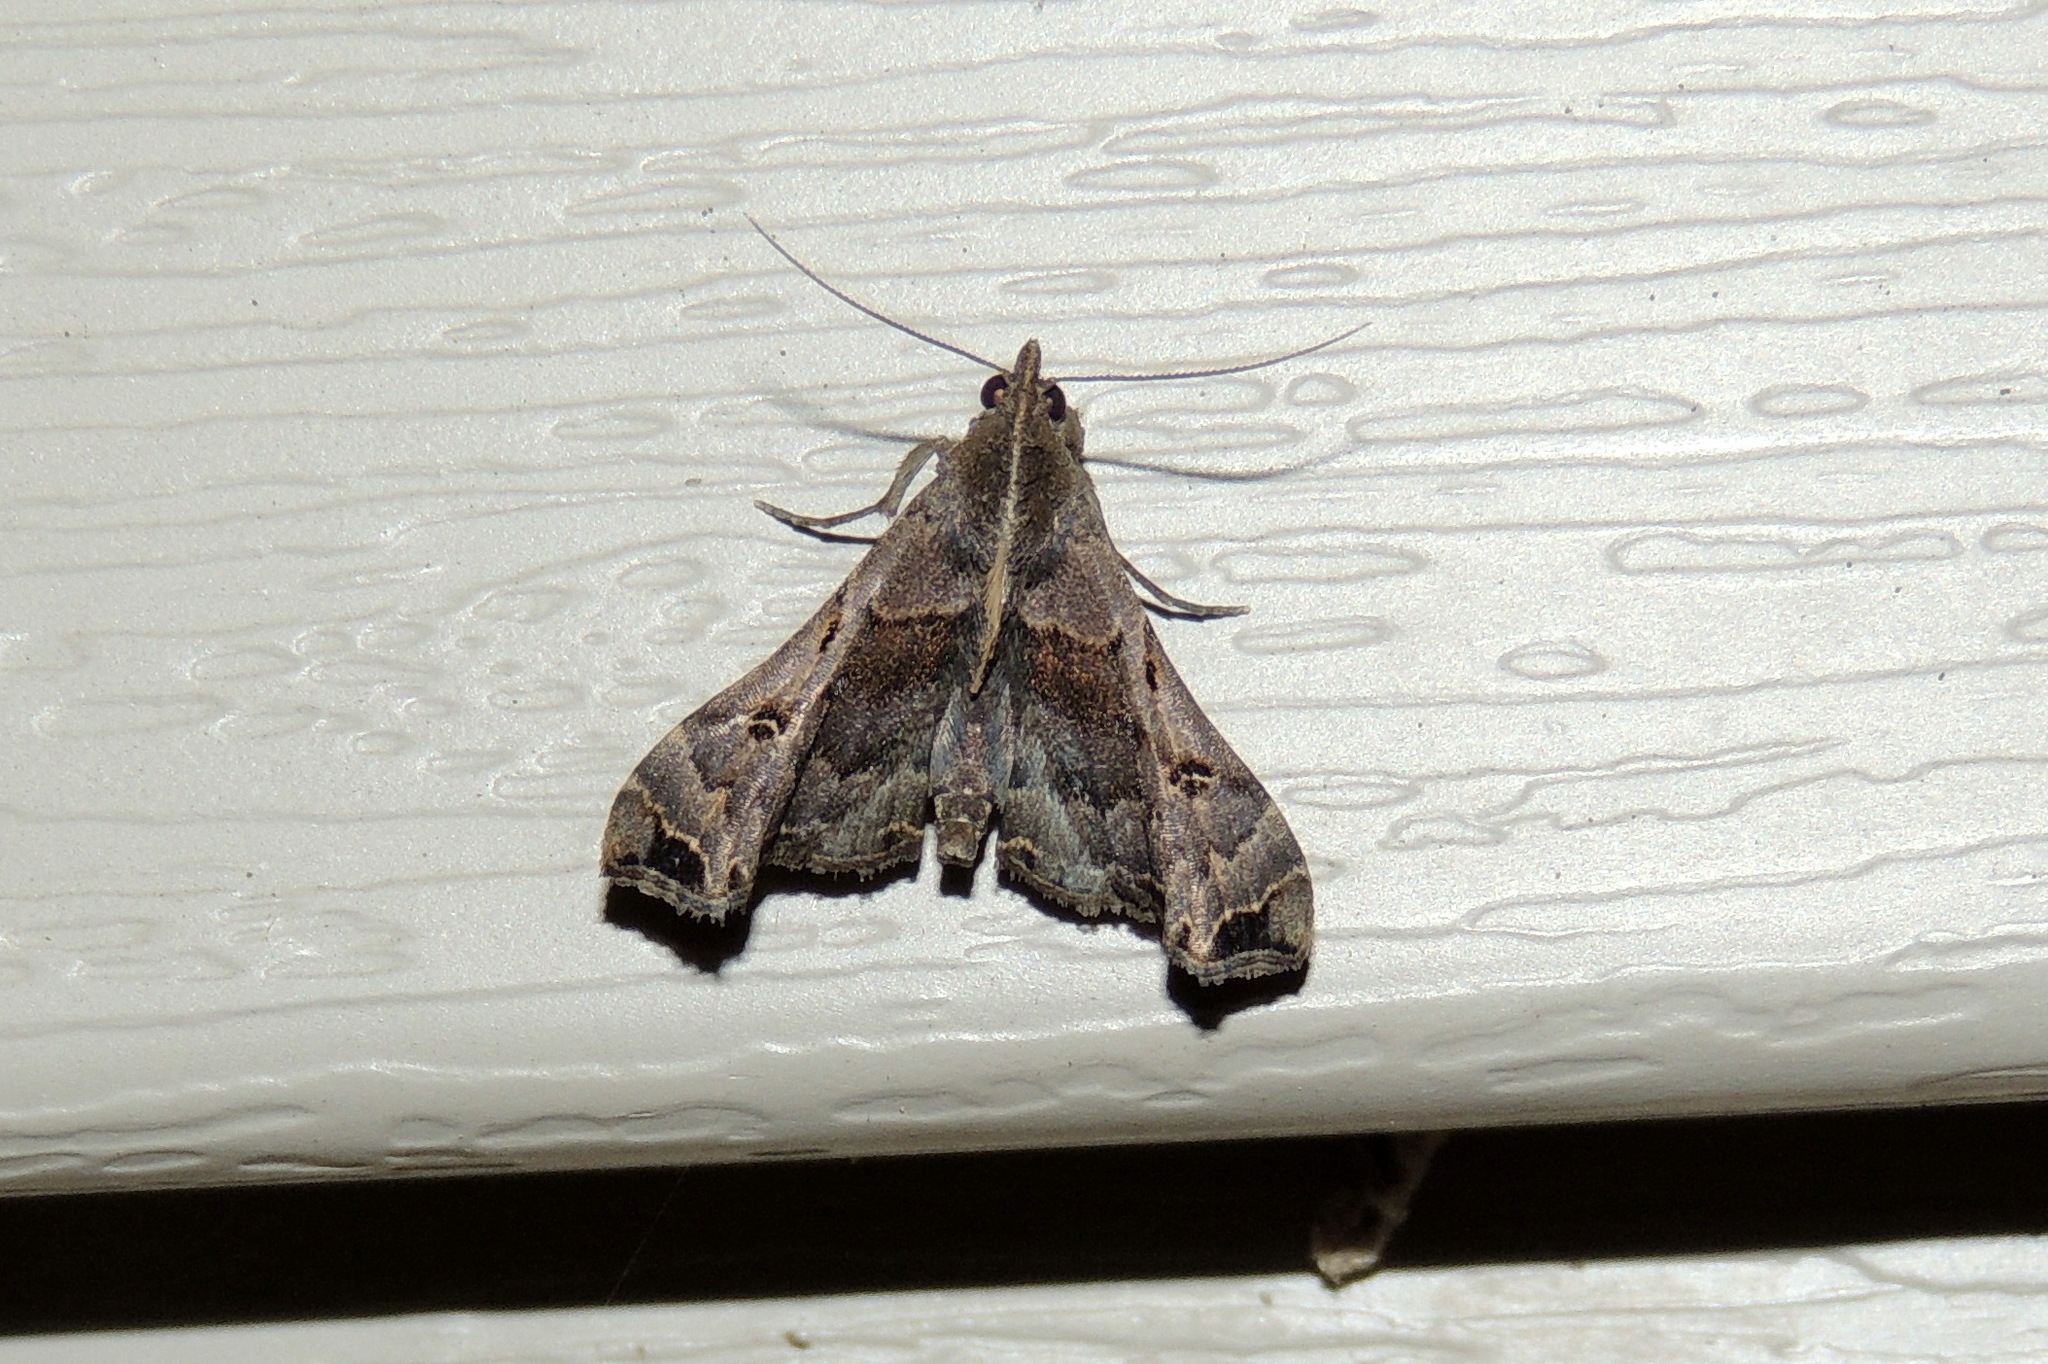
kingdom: Animalia
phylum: Arthropoda
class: Insecta
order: Lepidoptera
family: Erebidae
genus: Palthis
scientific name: Palthis asopialis
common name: Faint-spotted palthis moth
